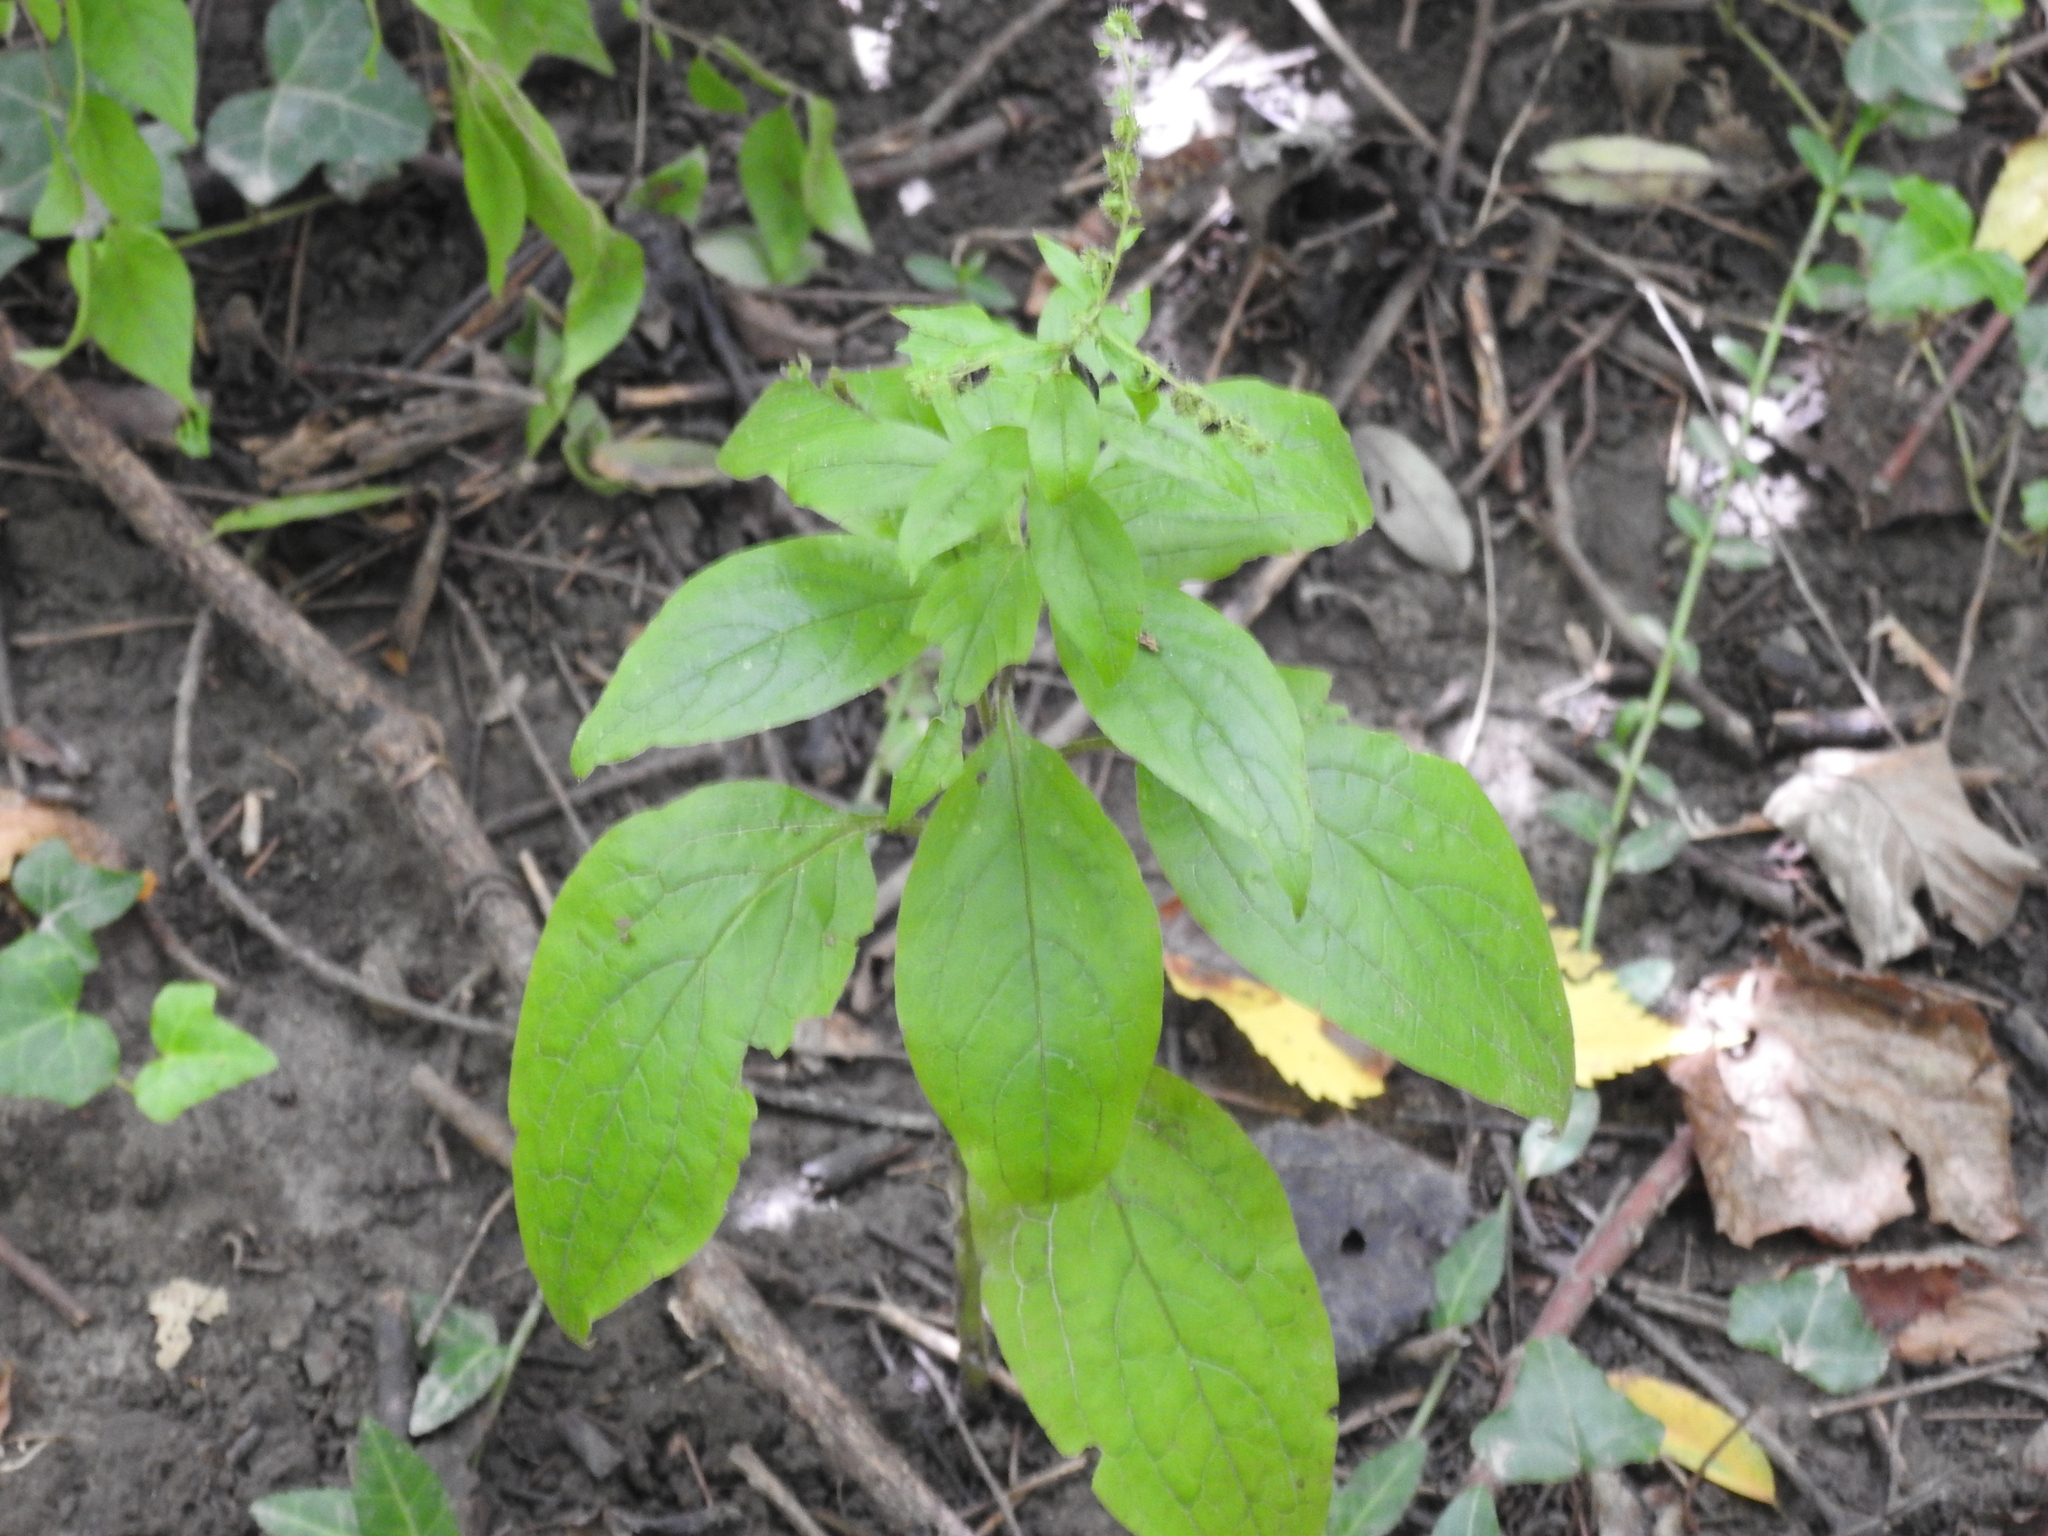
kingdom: Plantae
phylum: Tracheophyta
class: Magnoliopsida
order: Boraginales
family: Boraginaceae
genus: Hackelia
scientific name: Hackelia virginiana
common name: Beggar's-lice
